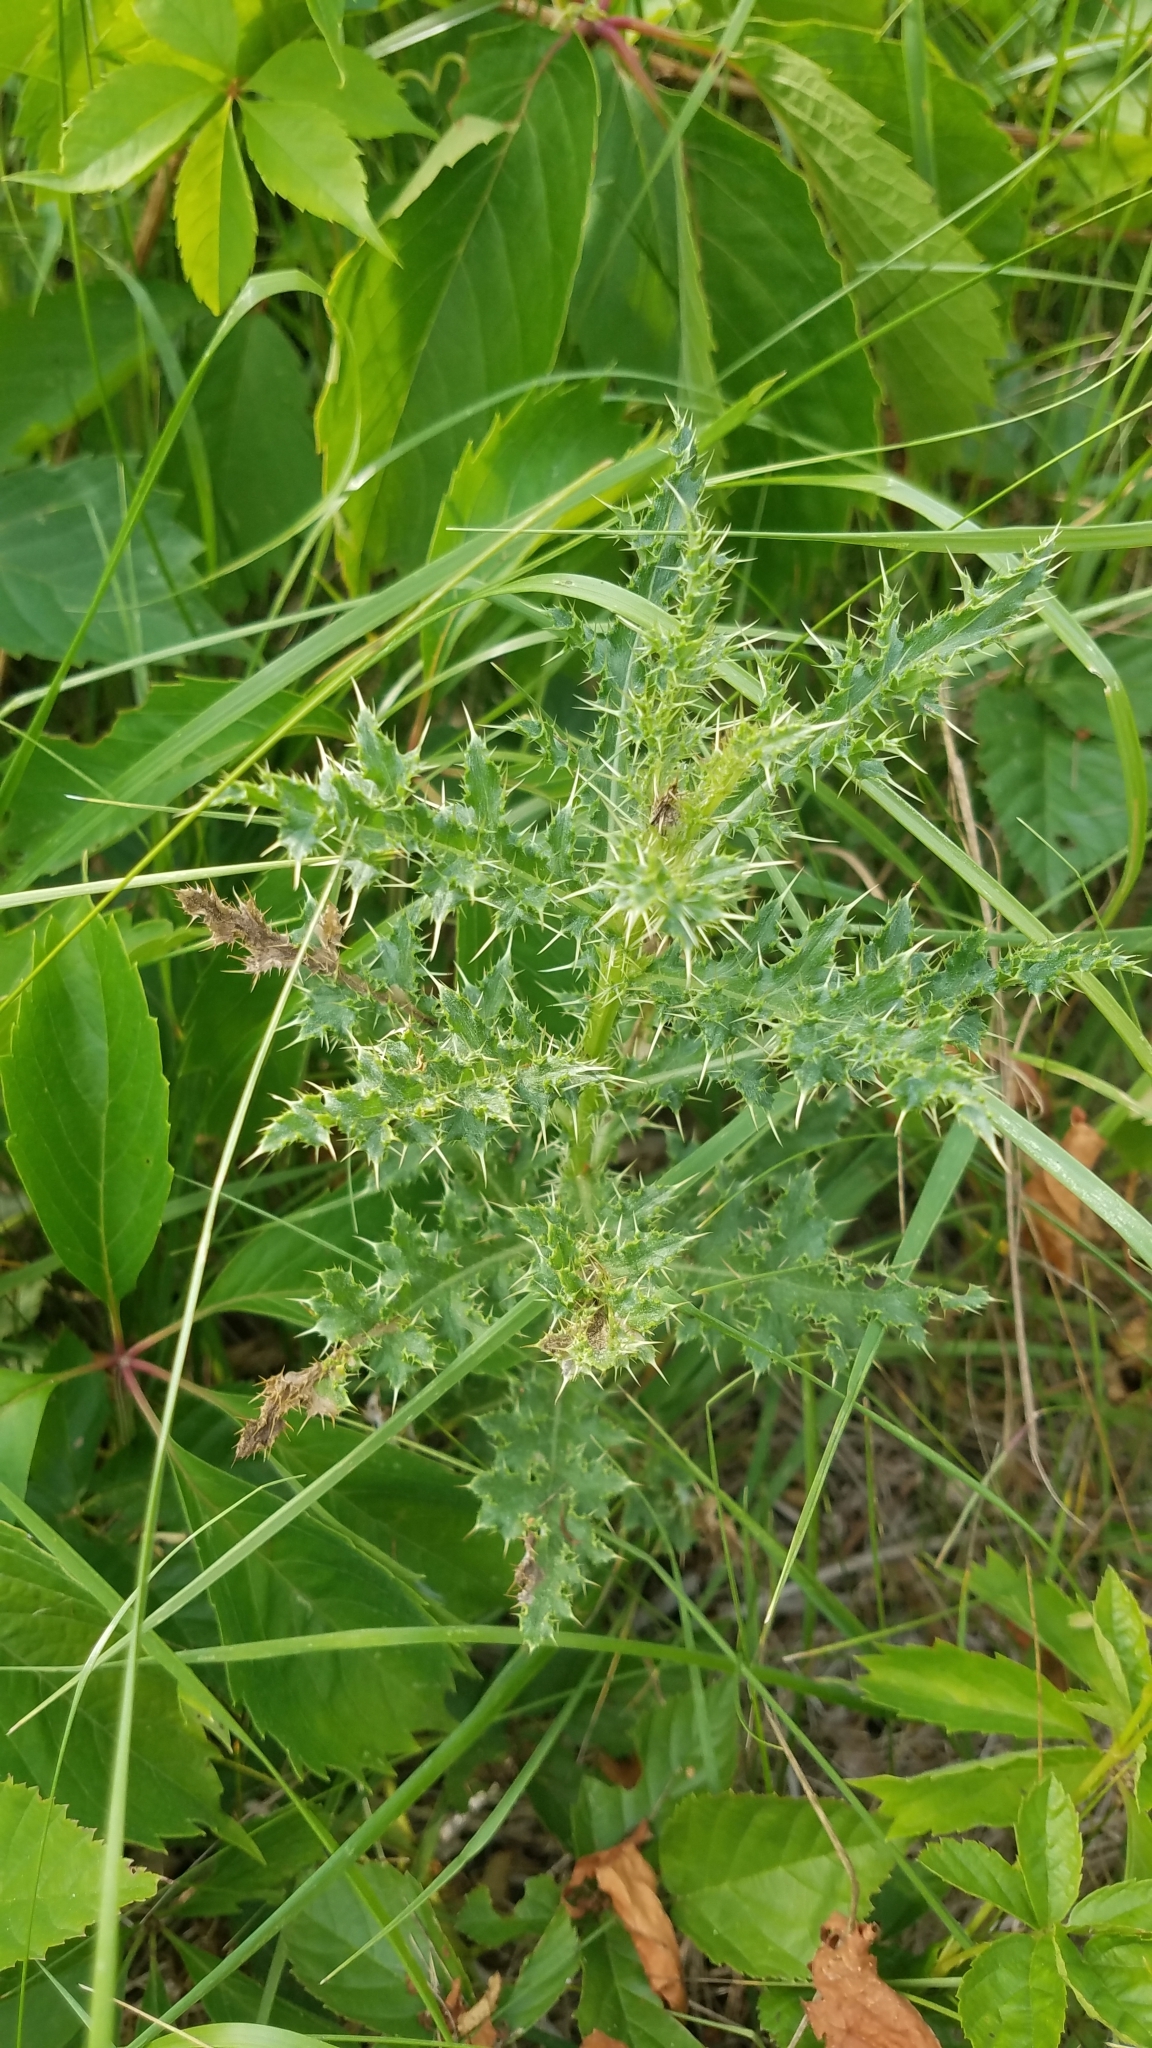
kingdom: Plantae
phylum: Tracheophyta
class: Magnoliopsida
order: Asterales
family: Asteraceae
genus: Cirsium
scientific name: Cirsium arvense
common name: Creeping thistle
